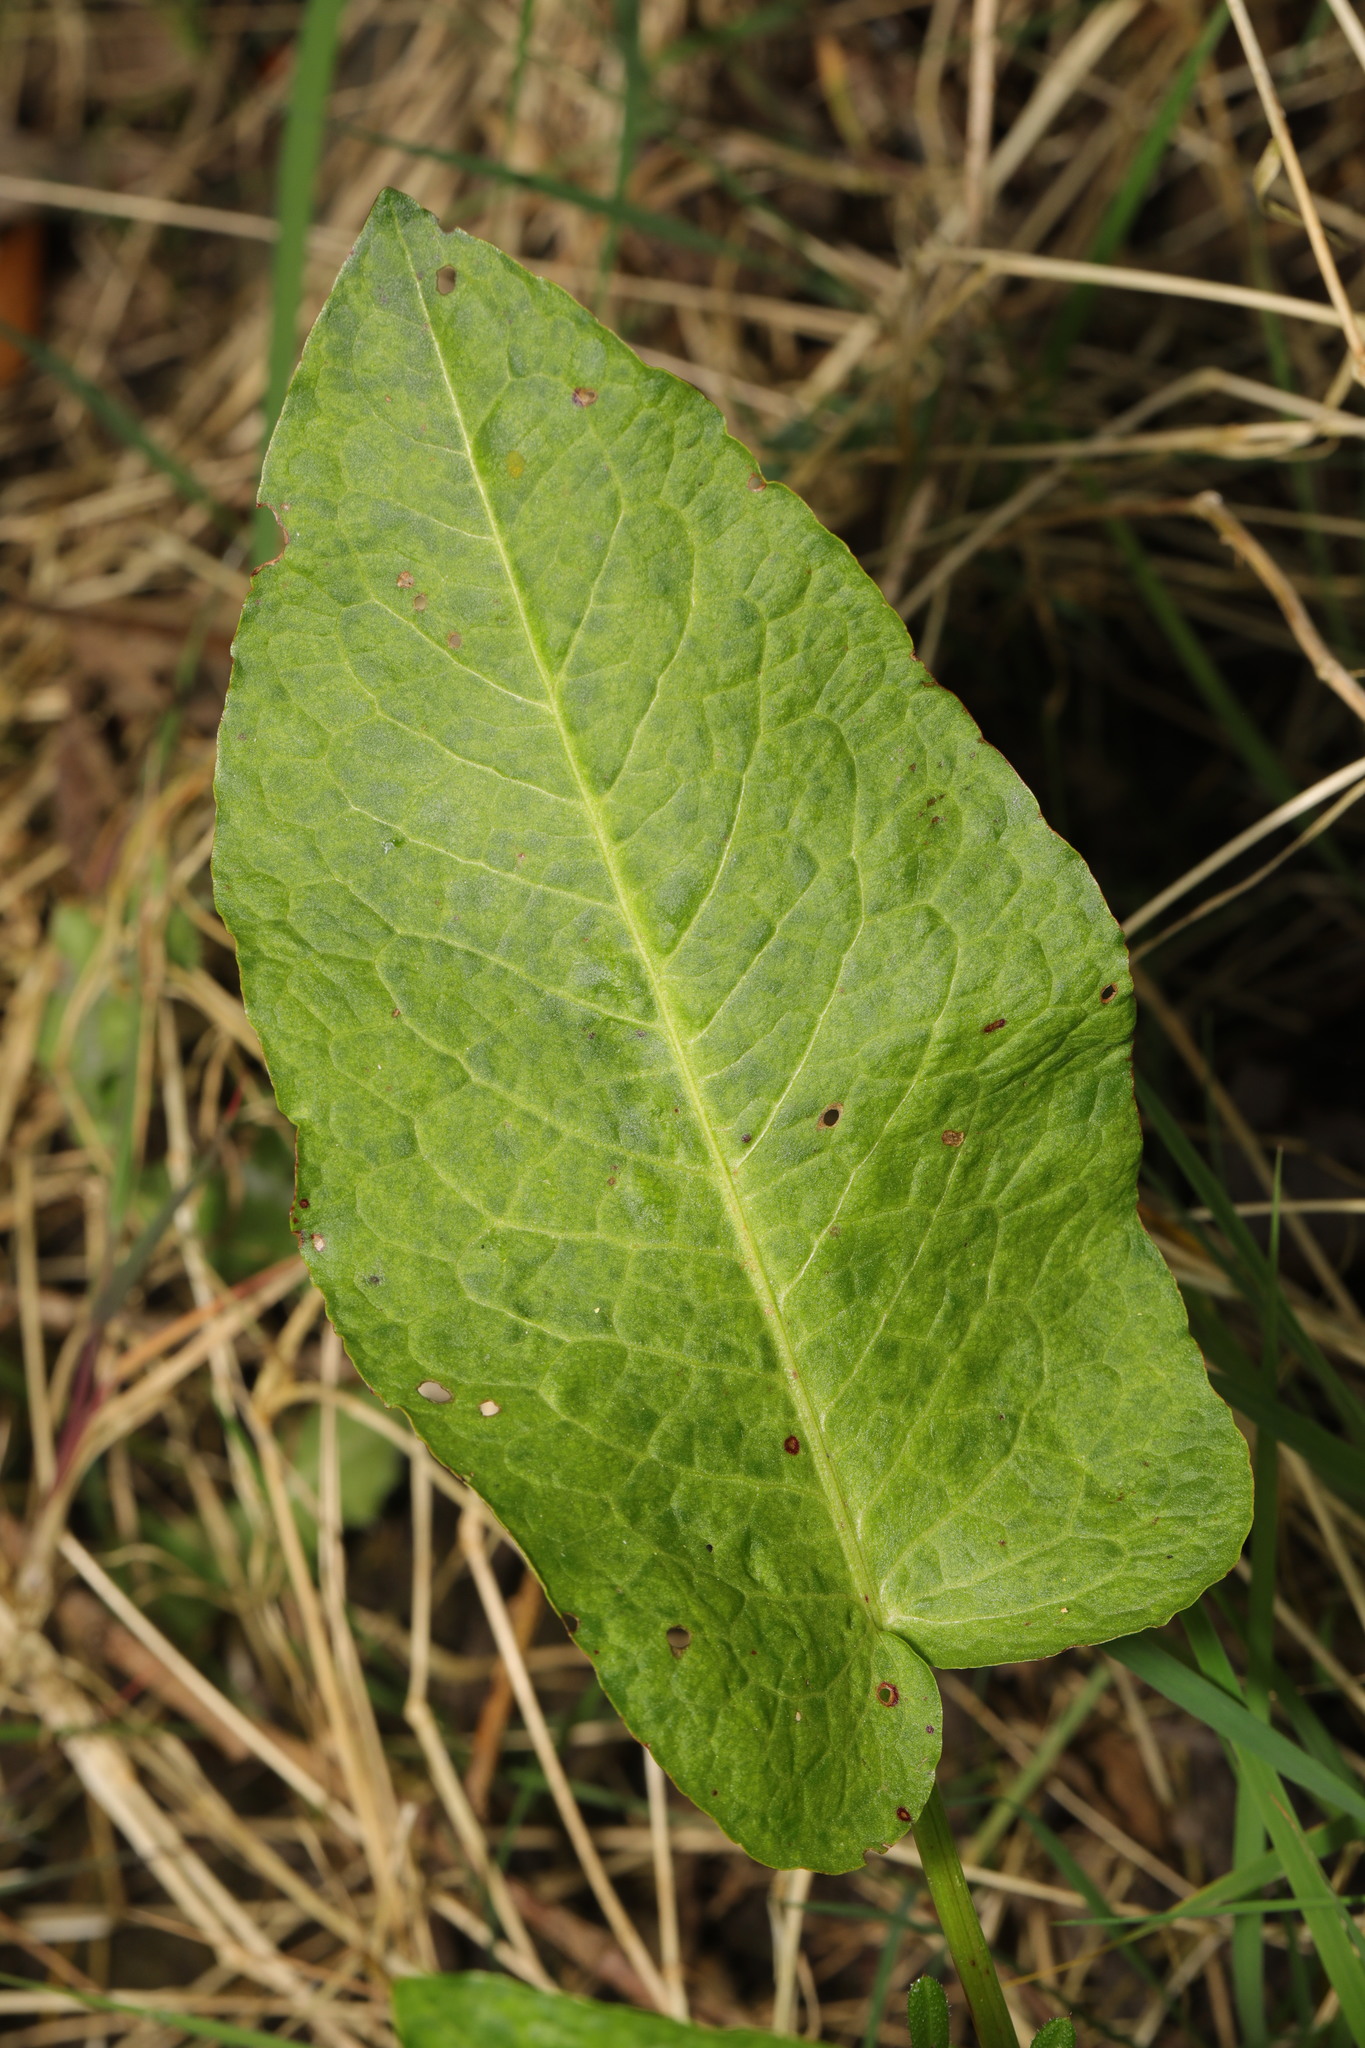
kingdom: Plantae
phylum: Tracheophyta
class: Magnoliopsida
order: Caryophyllales
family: Polygonaceae
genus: Rumex
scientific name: Rumex obtusifolius
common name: Bitter dock
